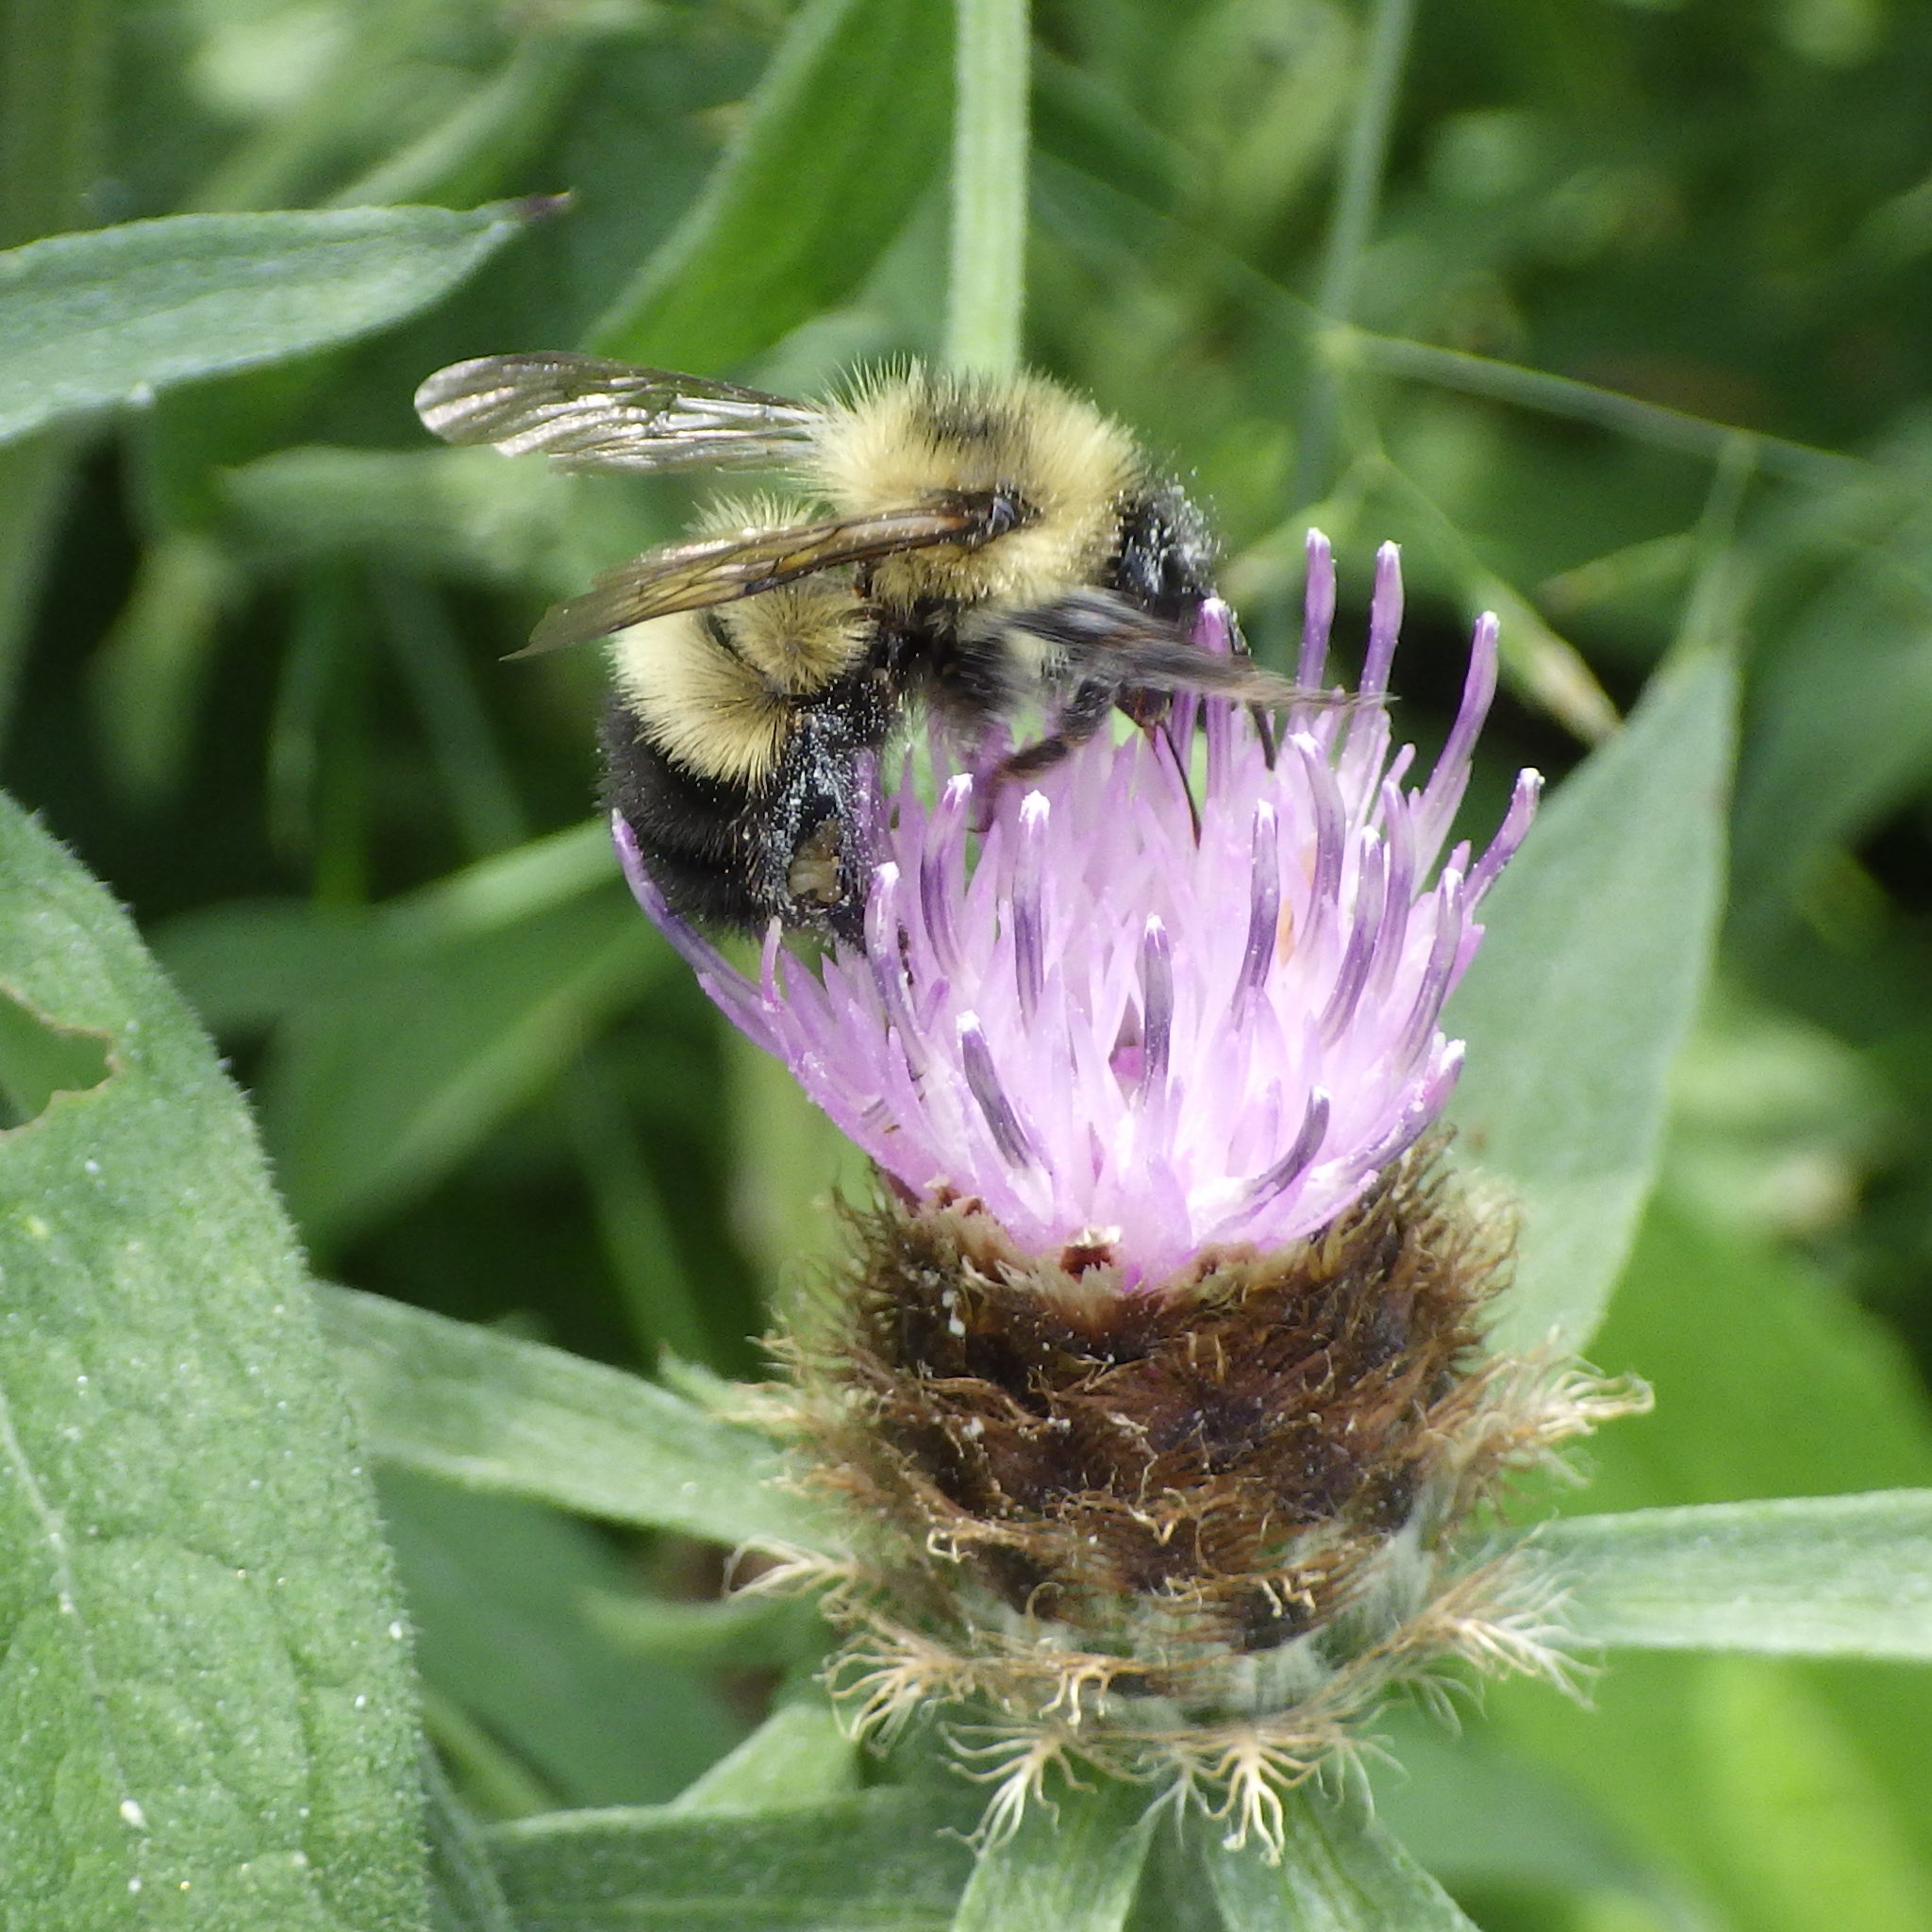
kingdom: Animalia
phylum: Arthropoda
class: Insecta
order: Hymenoptera
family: Apidae
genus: Pyrobombus
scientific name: Pyrobombus
